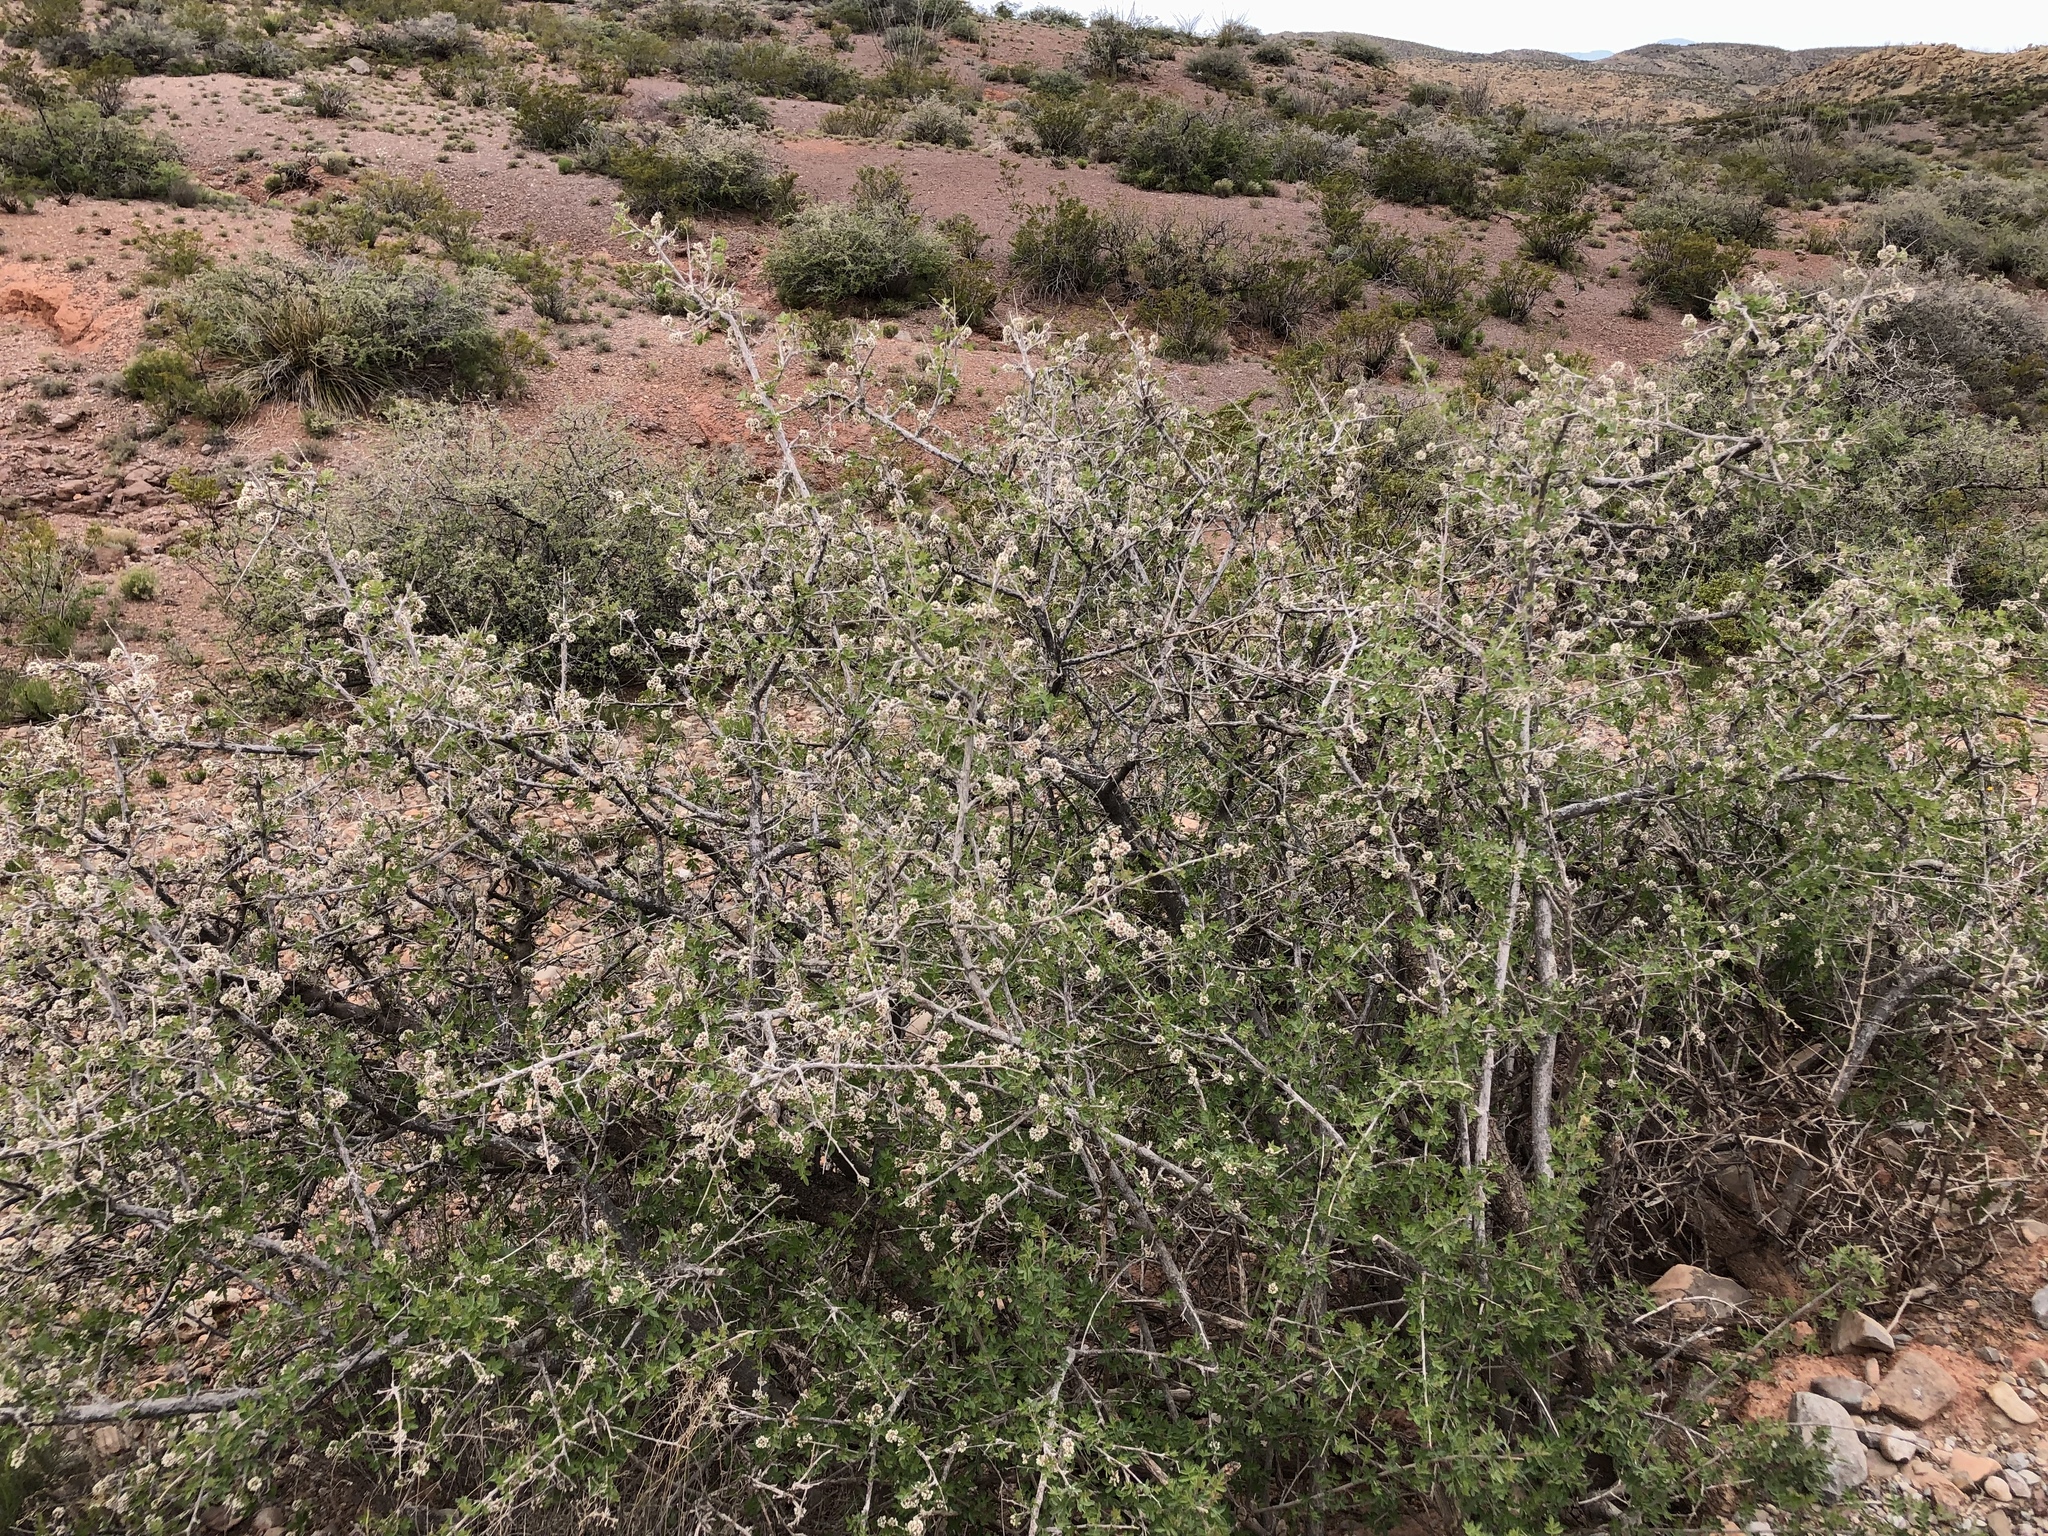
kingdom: Plantae
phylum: Tracheophyta
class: Magnoliopsida
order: Sapindales
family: Anacardiaceae
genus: Rhus
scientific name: Rhus microphylla
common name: Desert sumac
